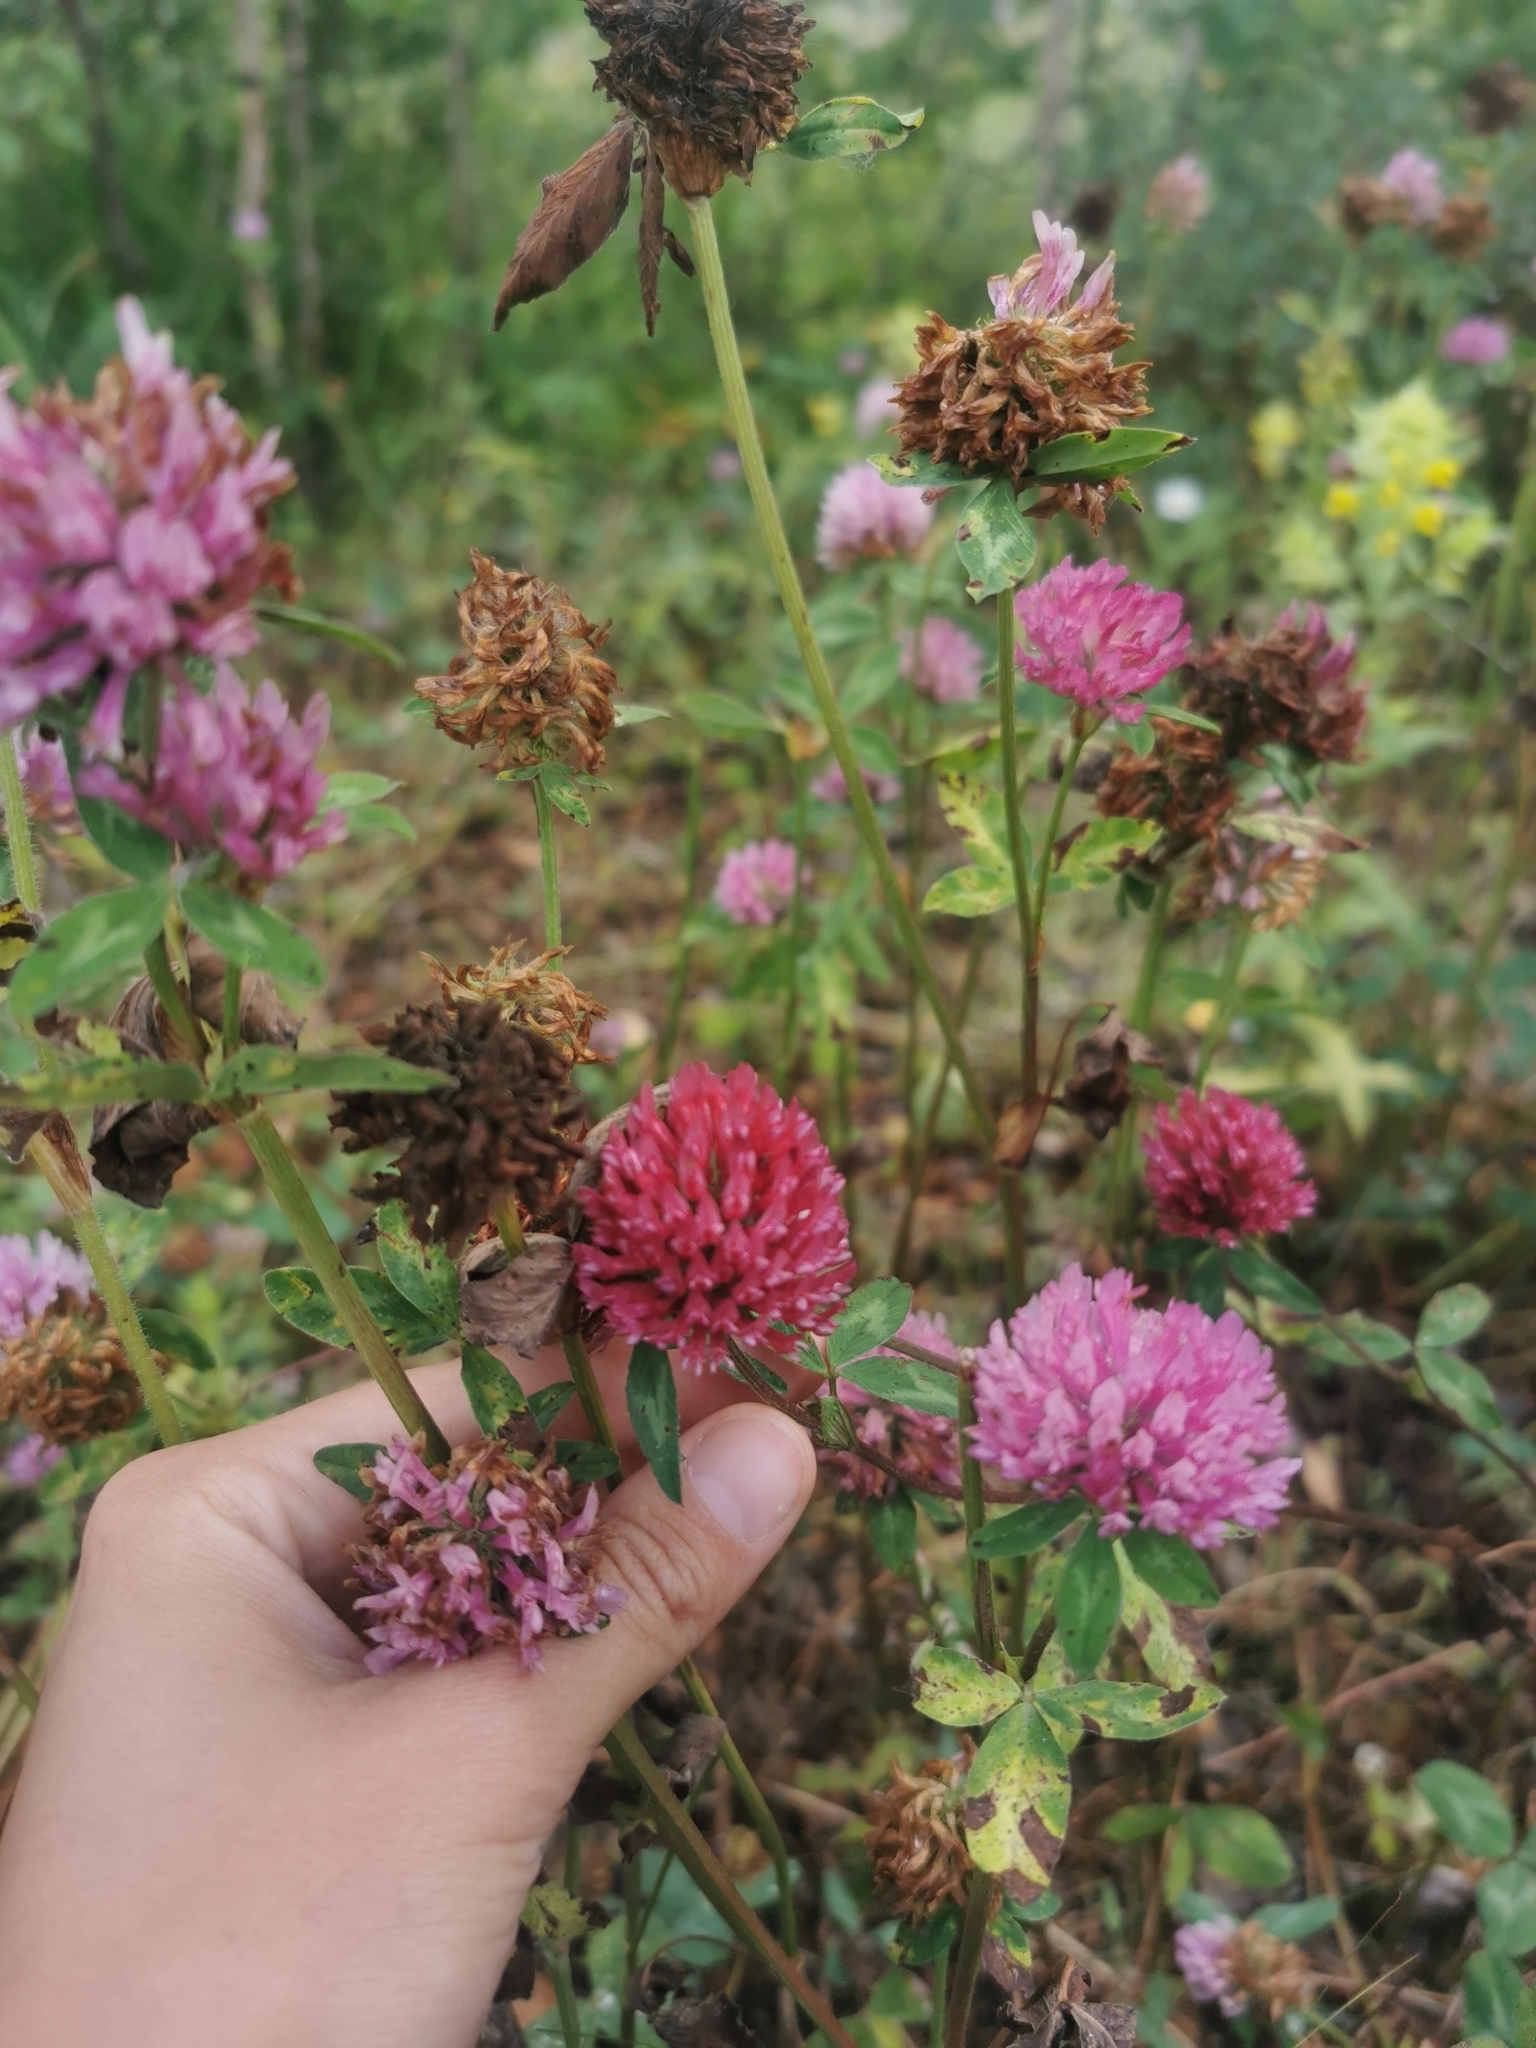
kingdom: Plantae
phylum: Tracheophyta
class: Magnoliopsida
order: Fabales
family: Fabaceae
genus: Trifolium
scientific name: Trifolium pratense
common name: Red clover
